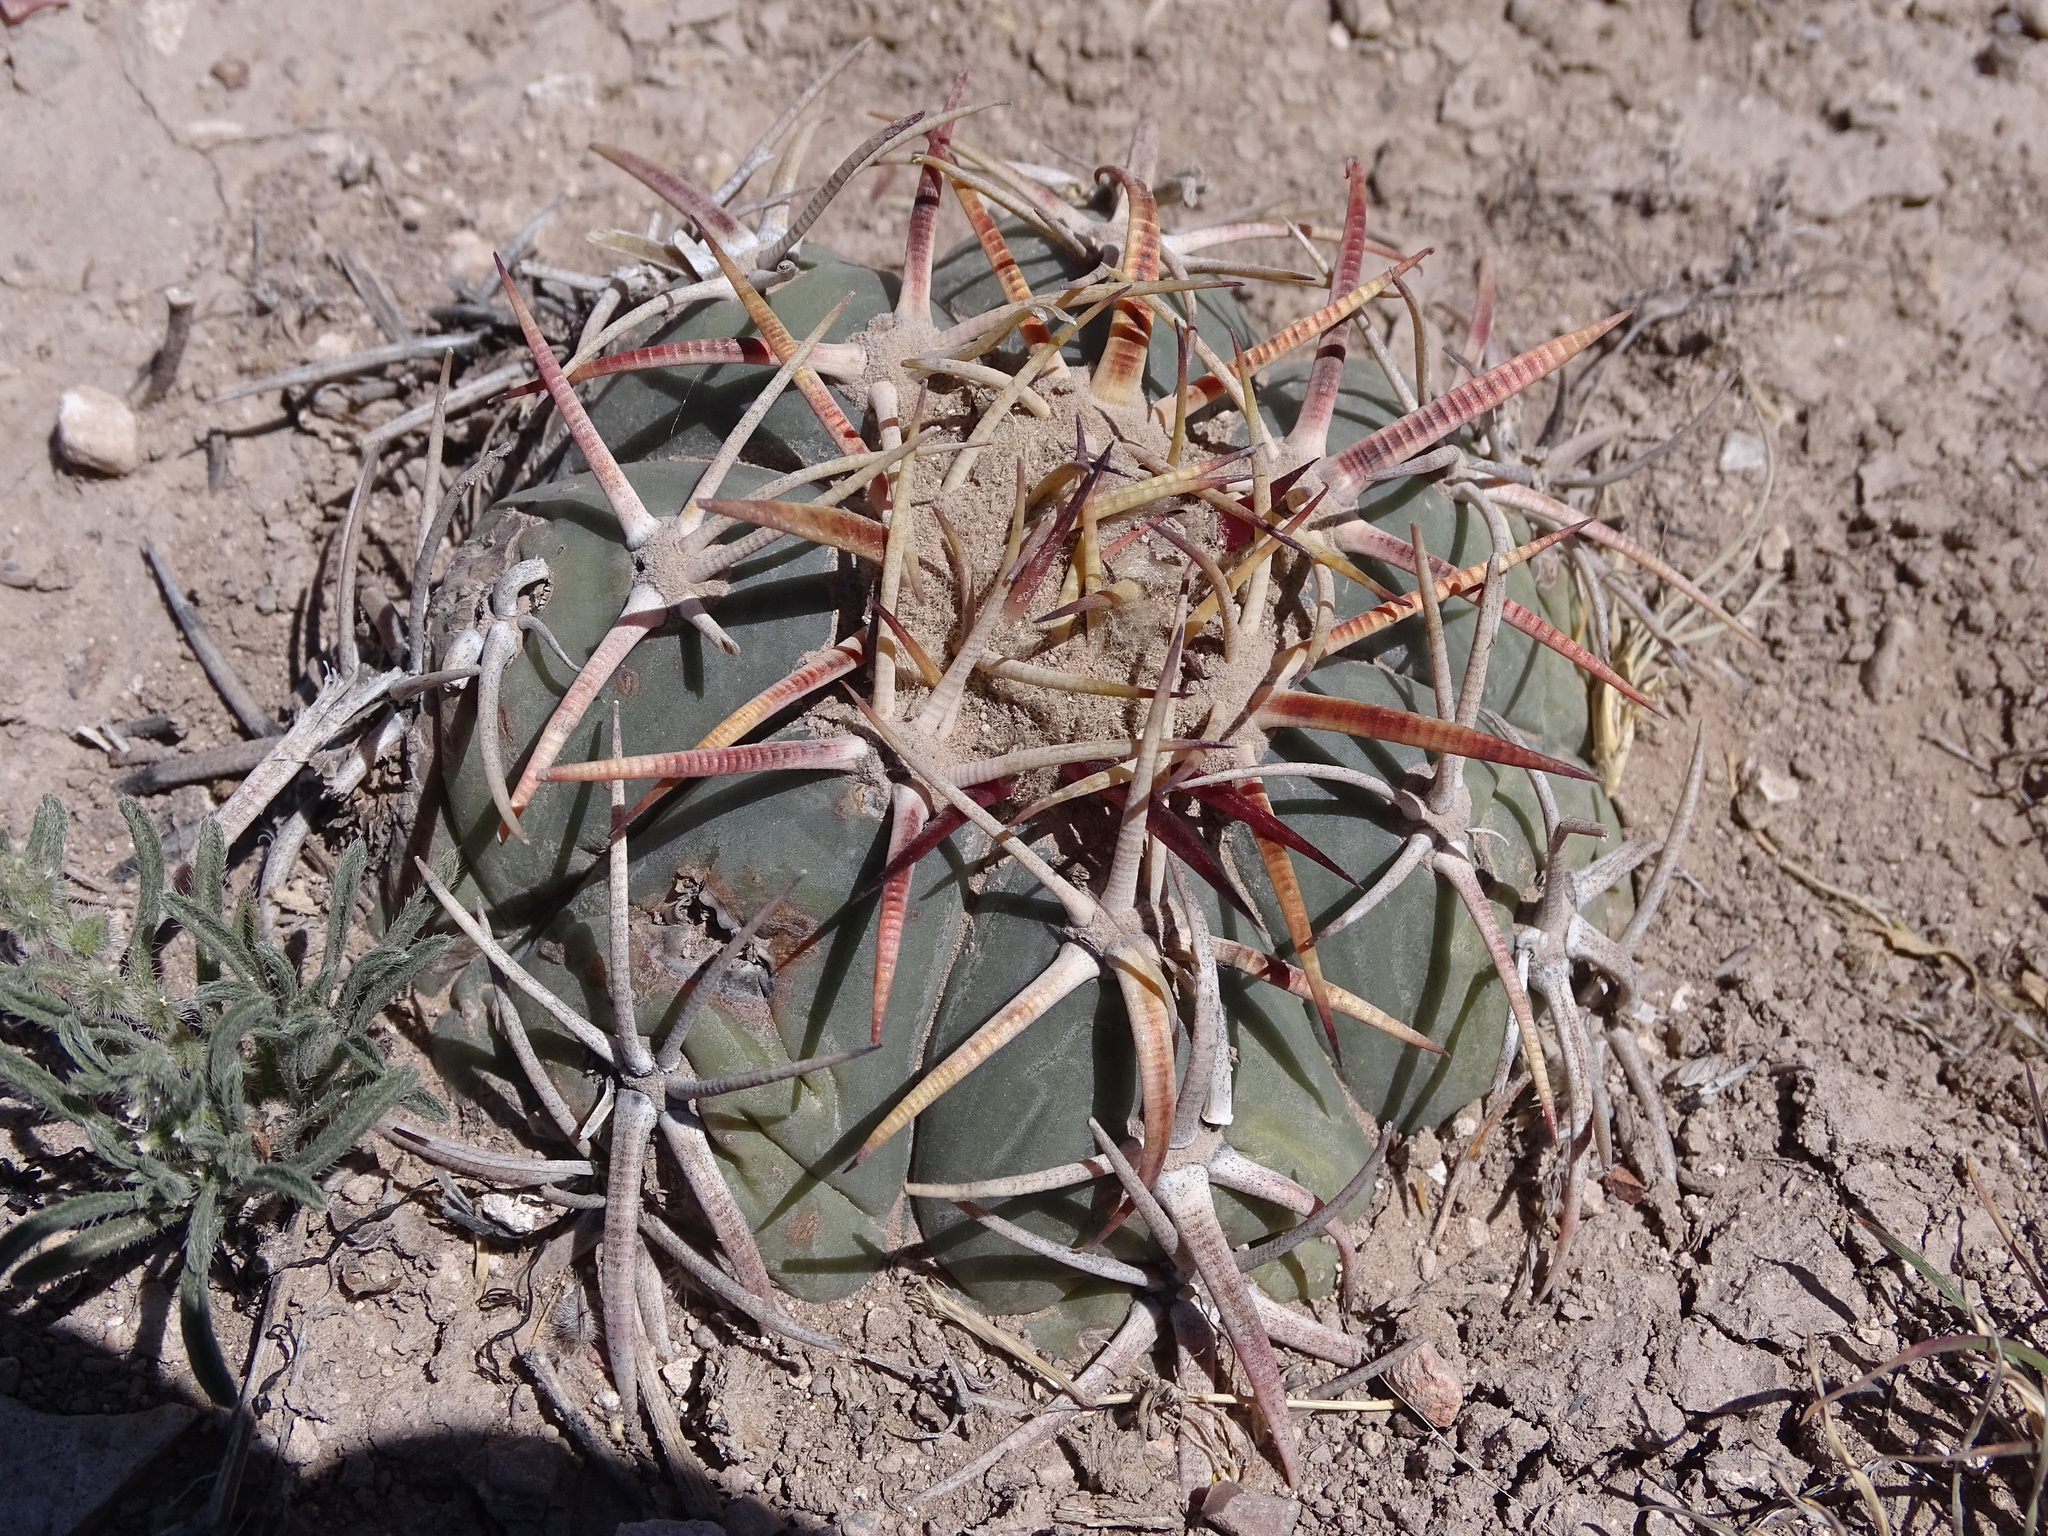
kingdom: Plantae
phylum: Tracheophyta
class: Magnoliopsida
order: Caryophyllales
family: Cactaceae
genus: Echinocactus
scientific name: Echinocactus horizonthalonius
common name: Devilshead
